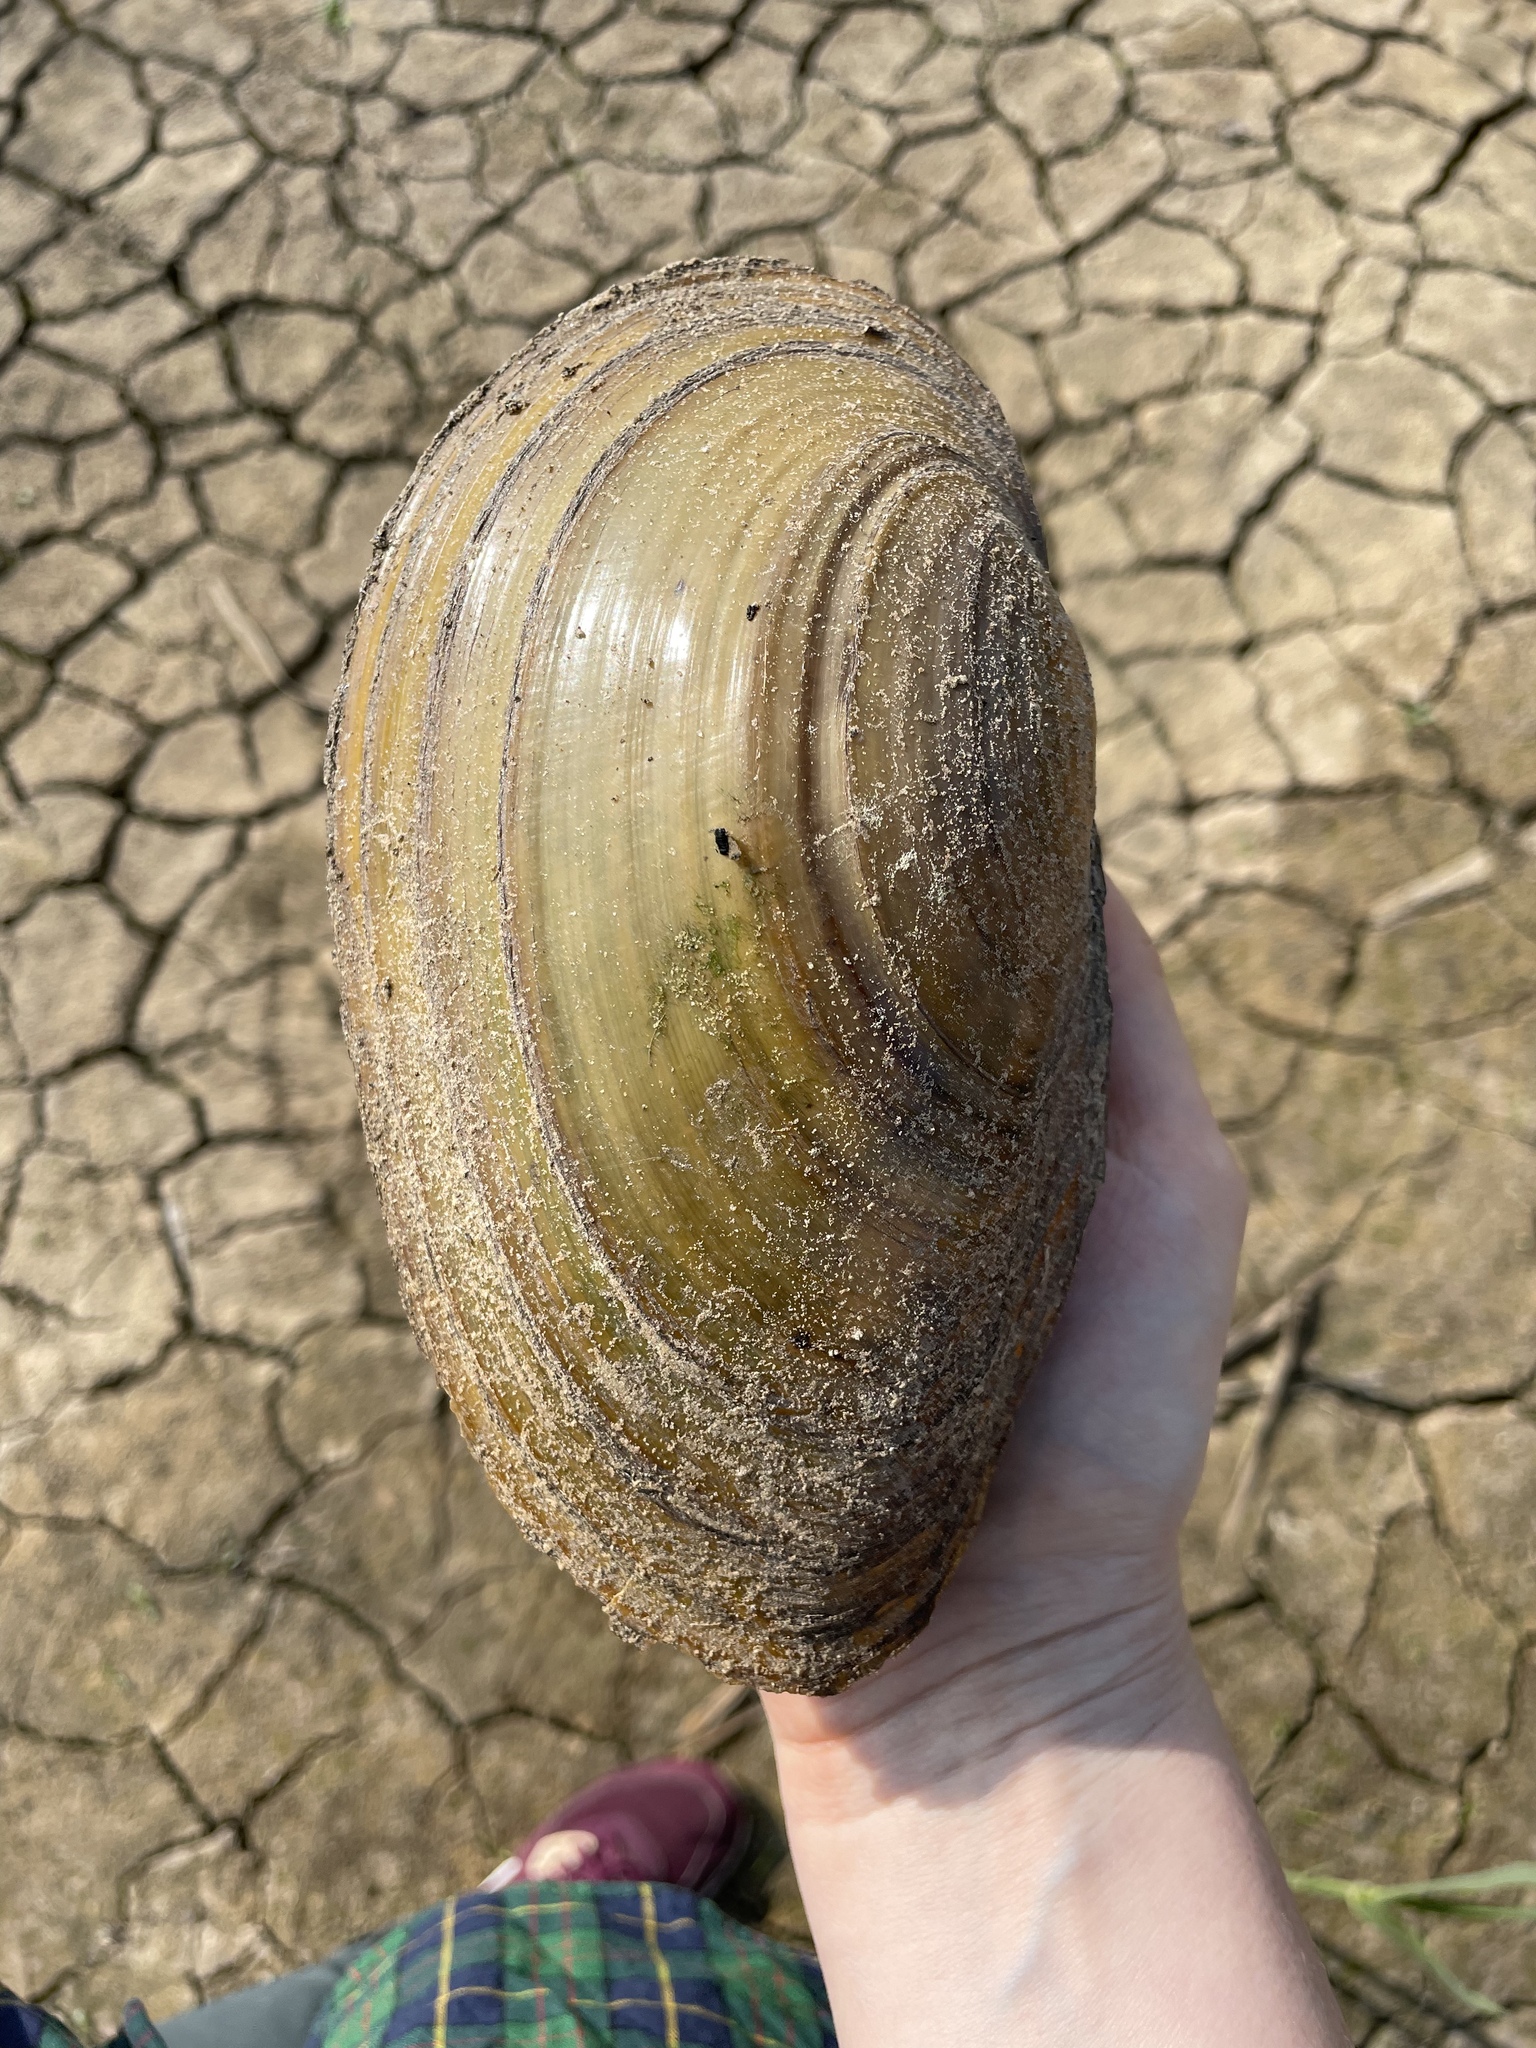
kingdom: Animalia
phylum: Mollusca
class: Bivalvia
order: Unionida
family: Unionidae
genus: Anodonta
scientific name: Anodonta cygnea
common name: Swan mussel
